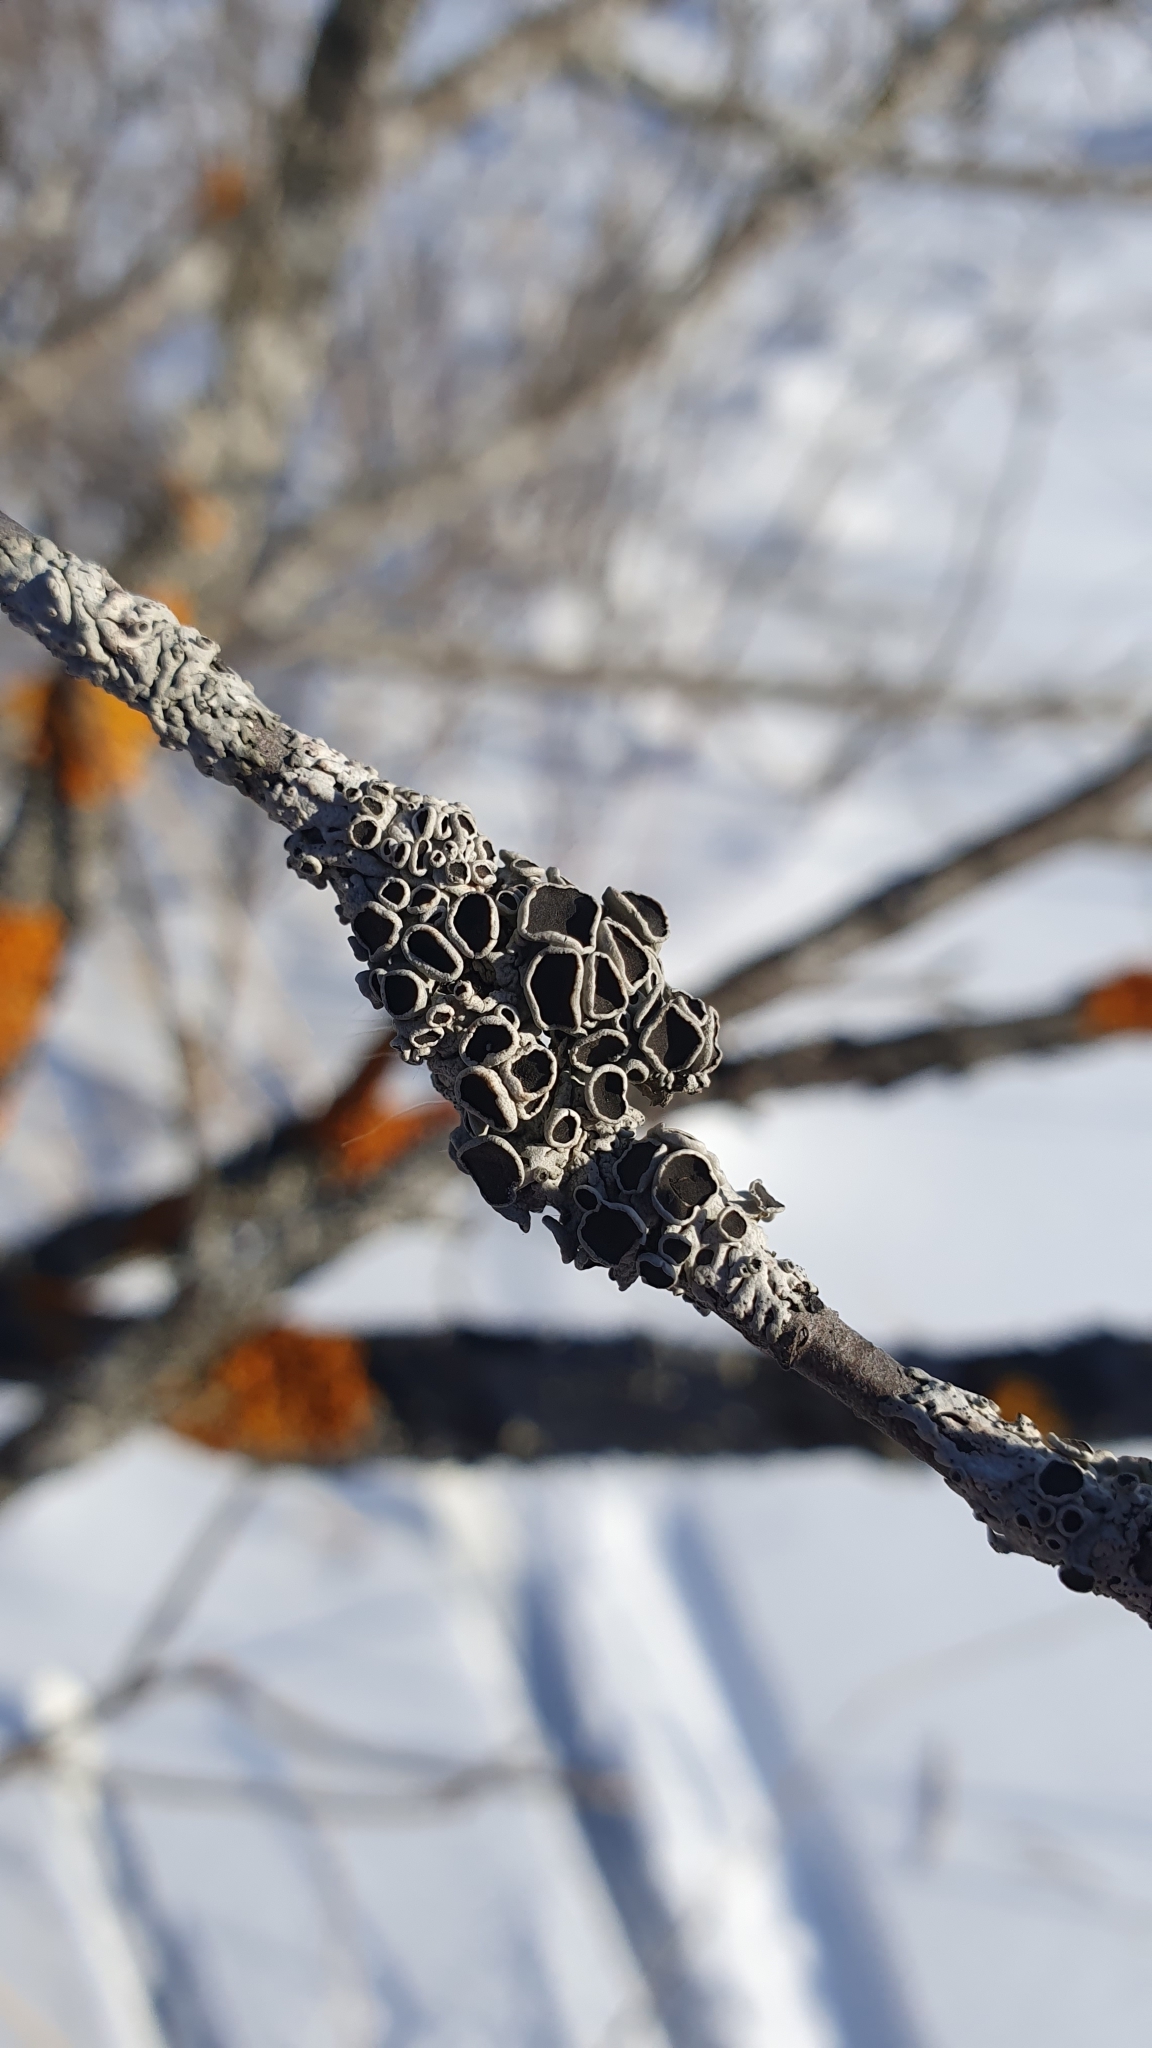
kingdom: Fungi
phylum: Ascomycota
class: Lecanoromycetes
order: Caliciales
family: Physciaceae
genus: Physcia
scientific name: Physcia stellaris
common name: Star rosette lichen
